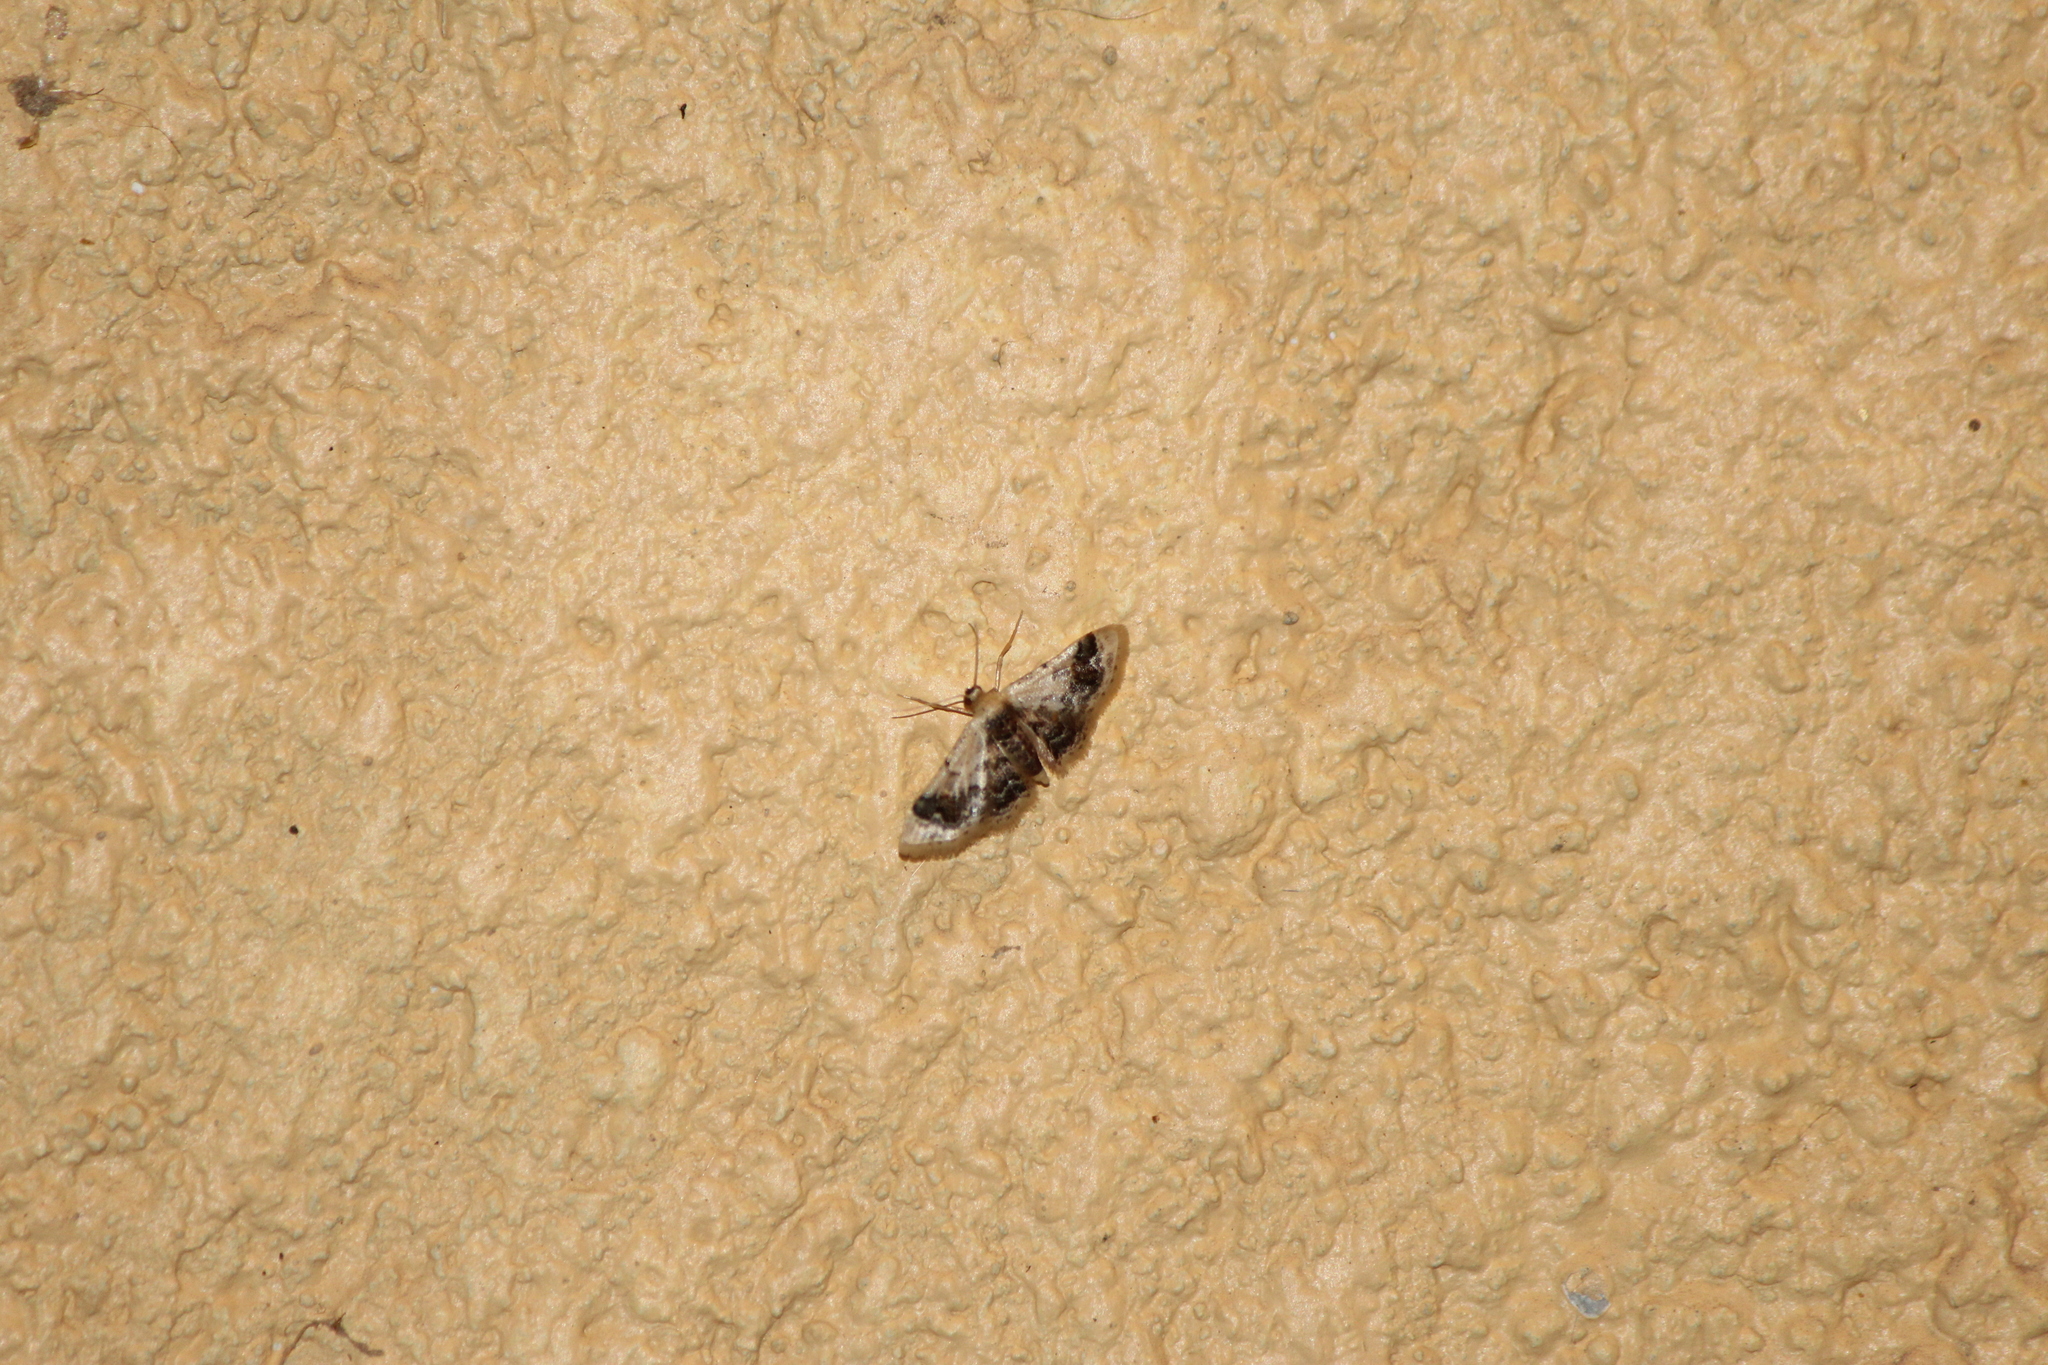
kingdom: Animalia
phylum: Arthropoda
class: Insecta
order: Lepidoptera
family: Geometridae
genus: Idaea
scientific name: Idaea asceta
